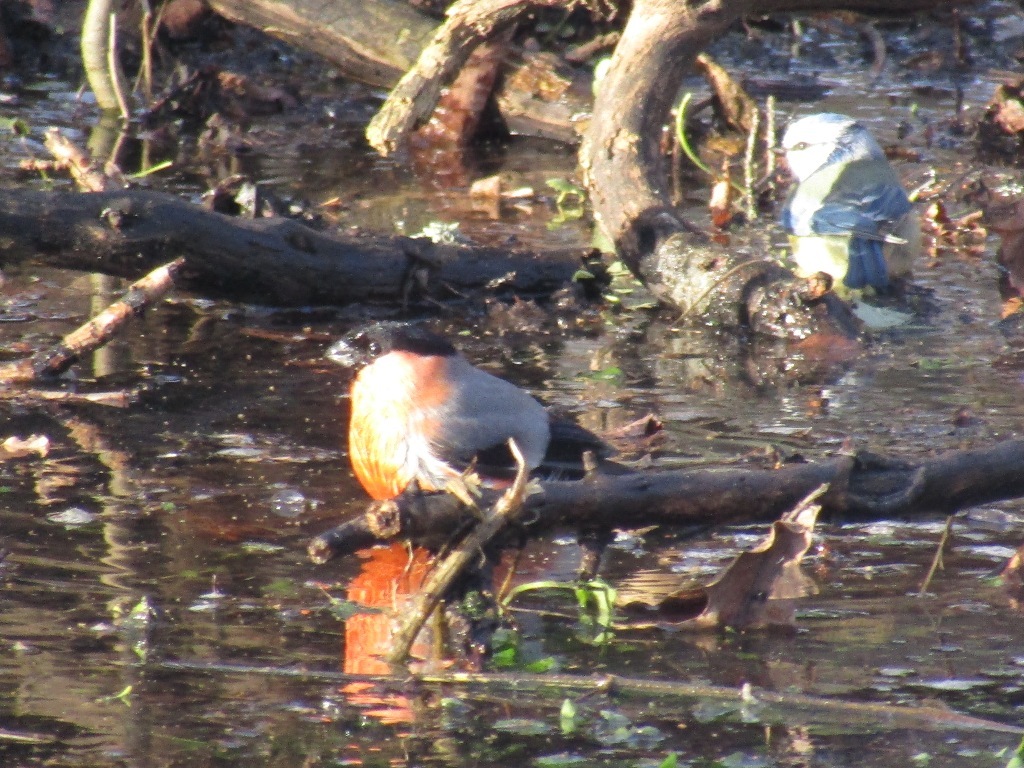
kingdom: Animalia
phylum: Chordata
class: Aves
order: Passeriformes
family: Fringillidae
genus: Pyrrhula
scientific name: Pyrrhula pyrrhula
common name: Eurasian bullfinch
